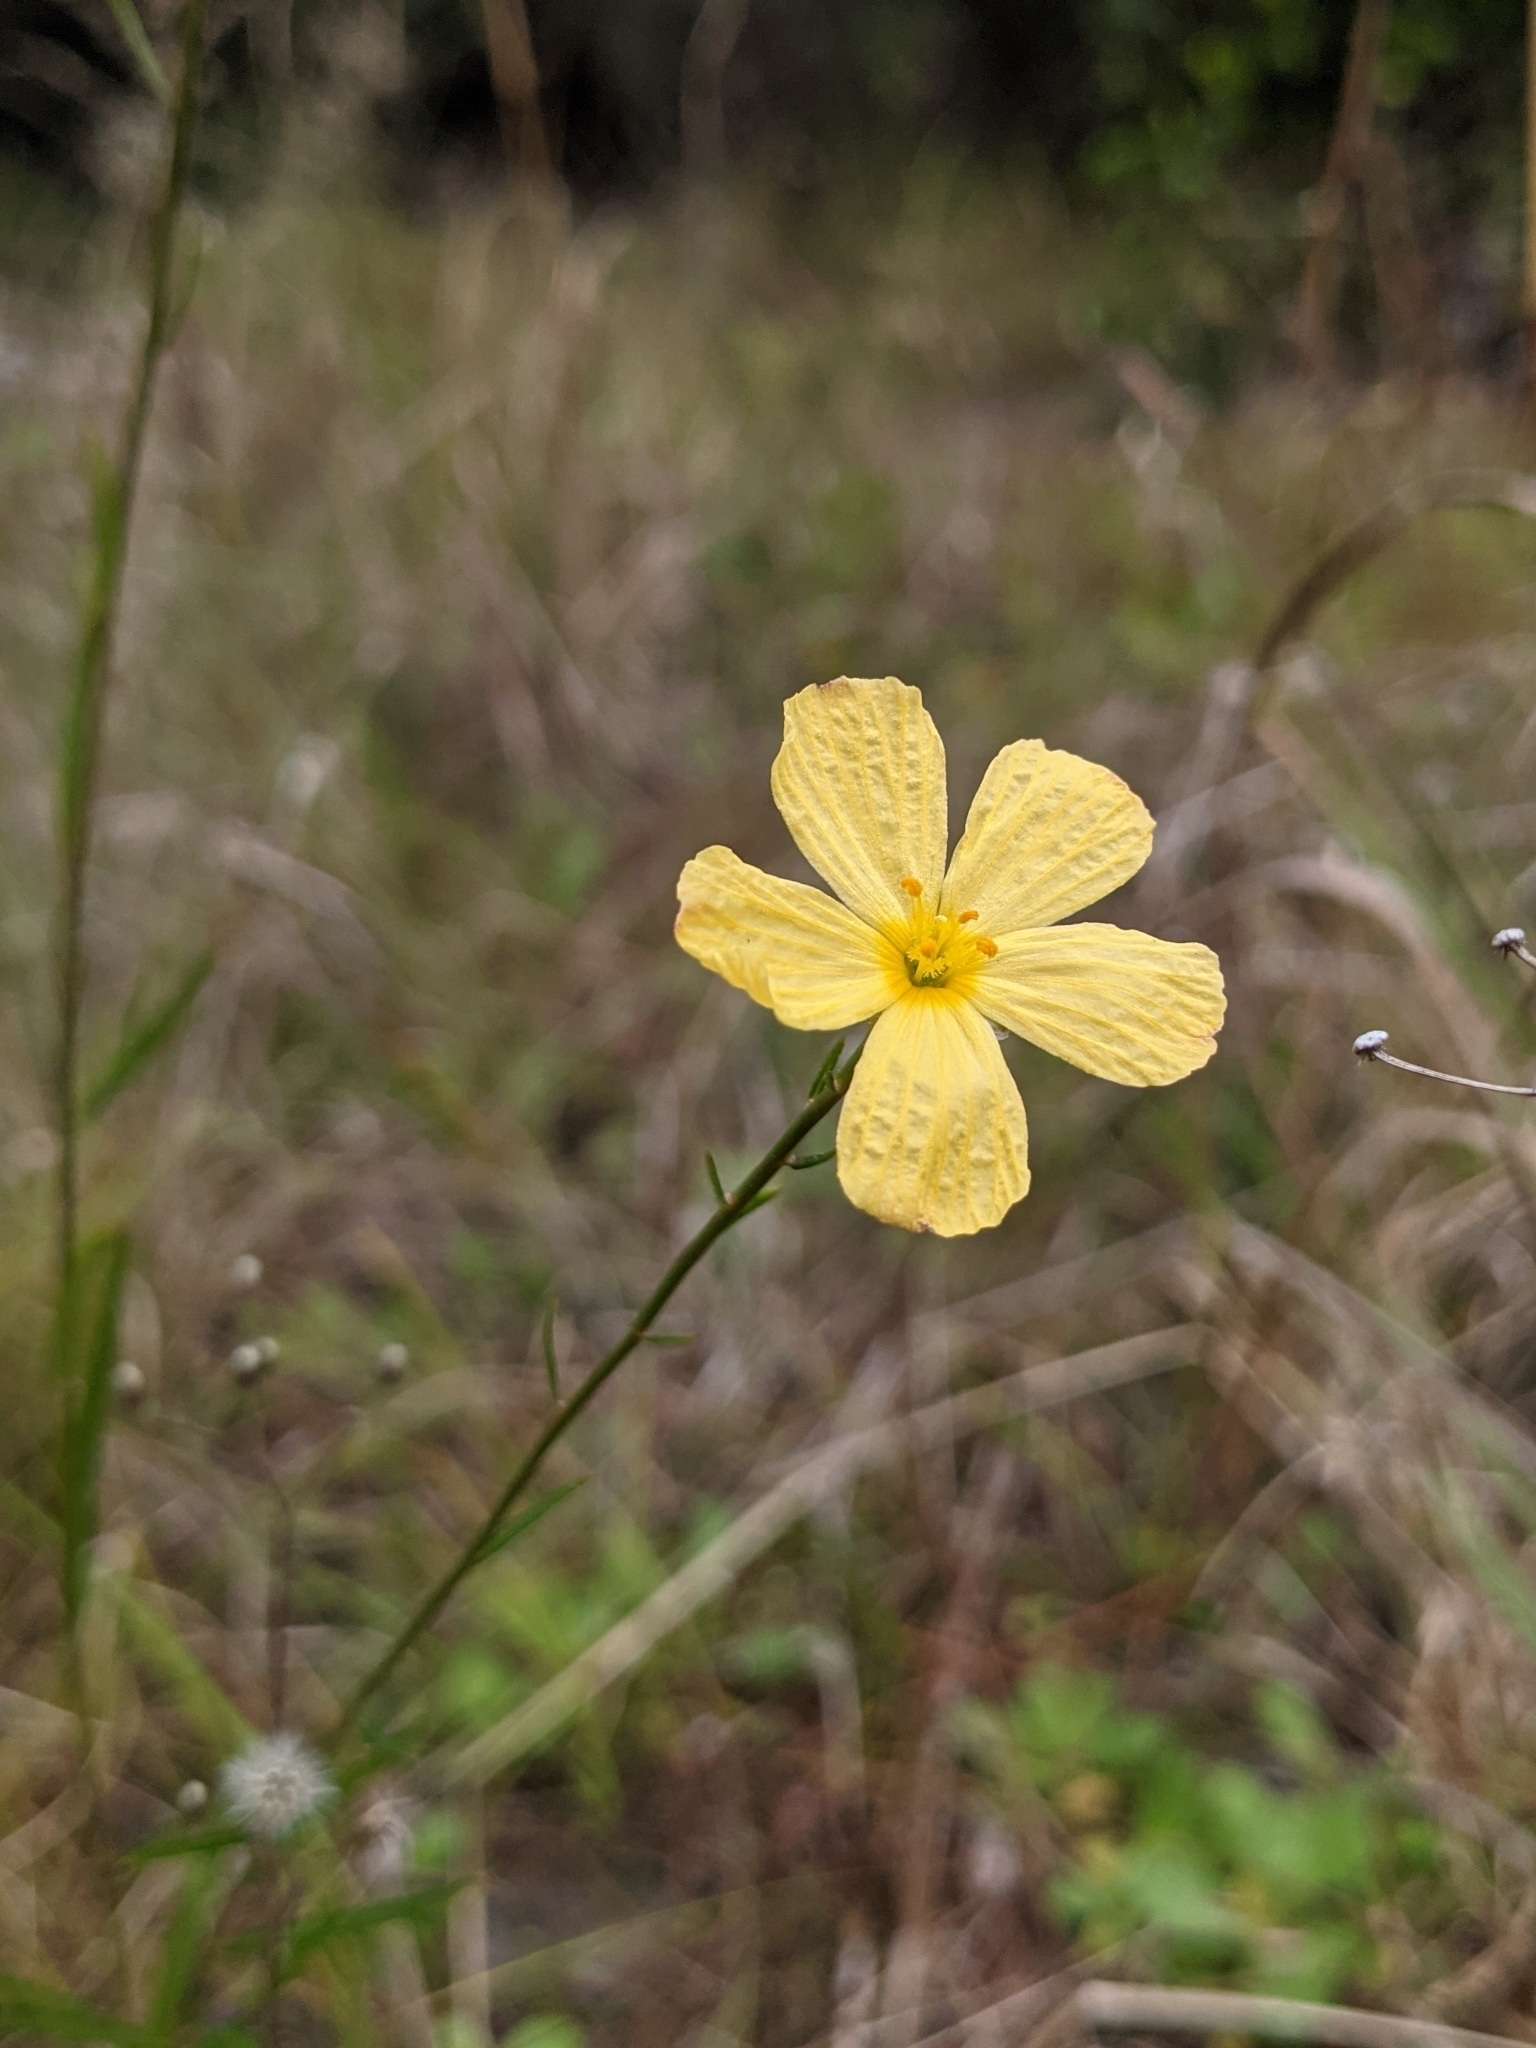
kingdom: Plantae
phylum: Tracheophyta
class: Magnoliopsida
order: Malpighiales
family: Turneraceae
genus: Piriqueta
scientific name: Piriqueta cistoides
